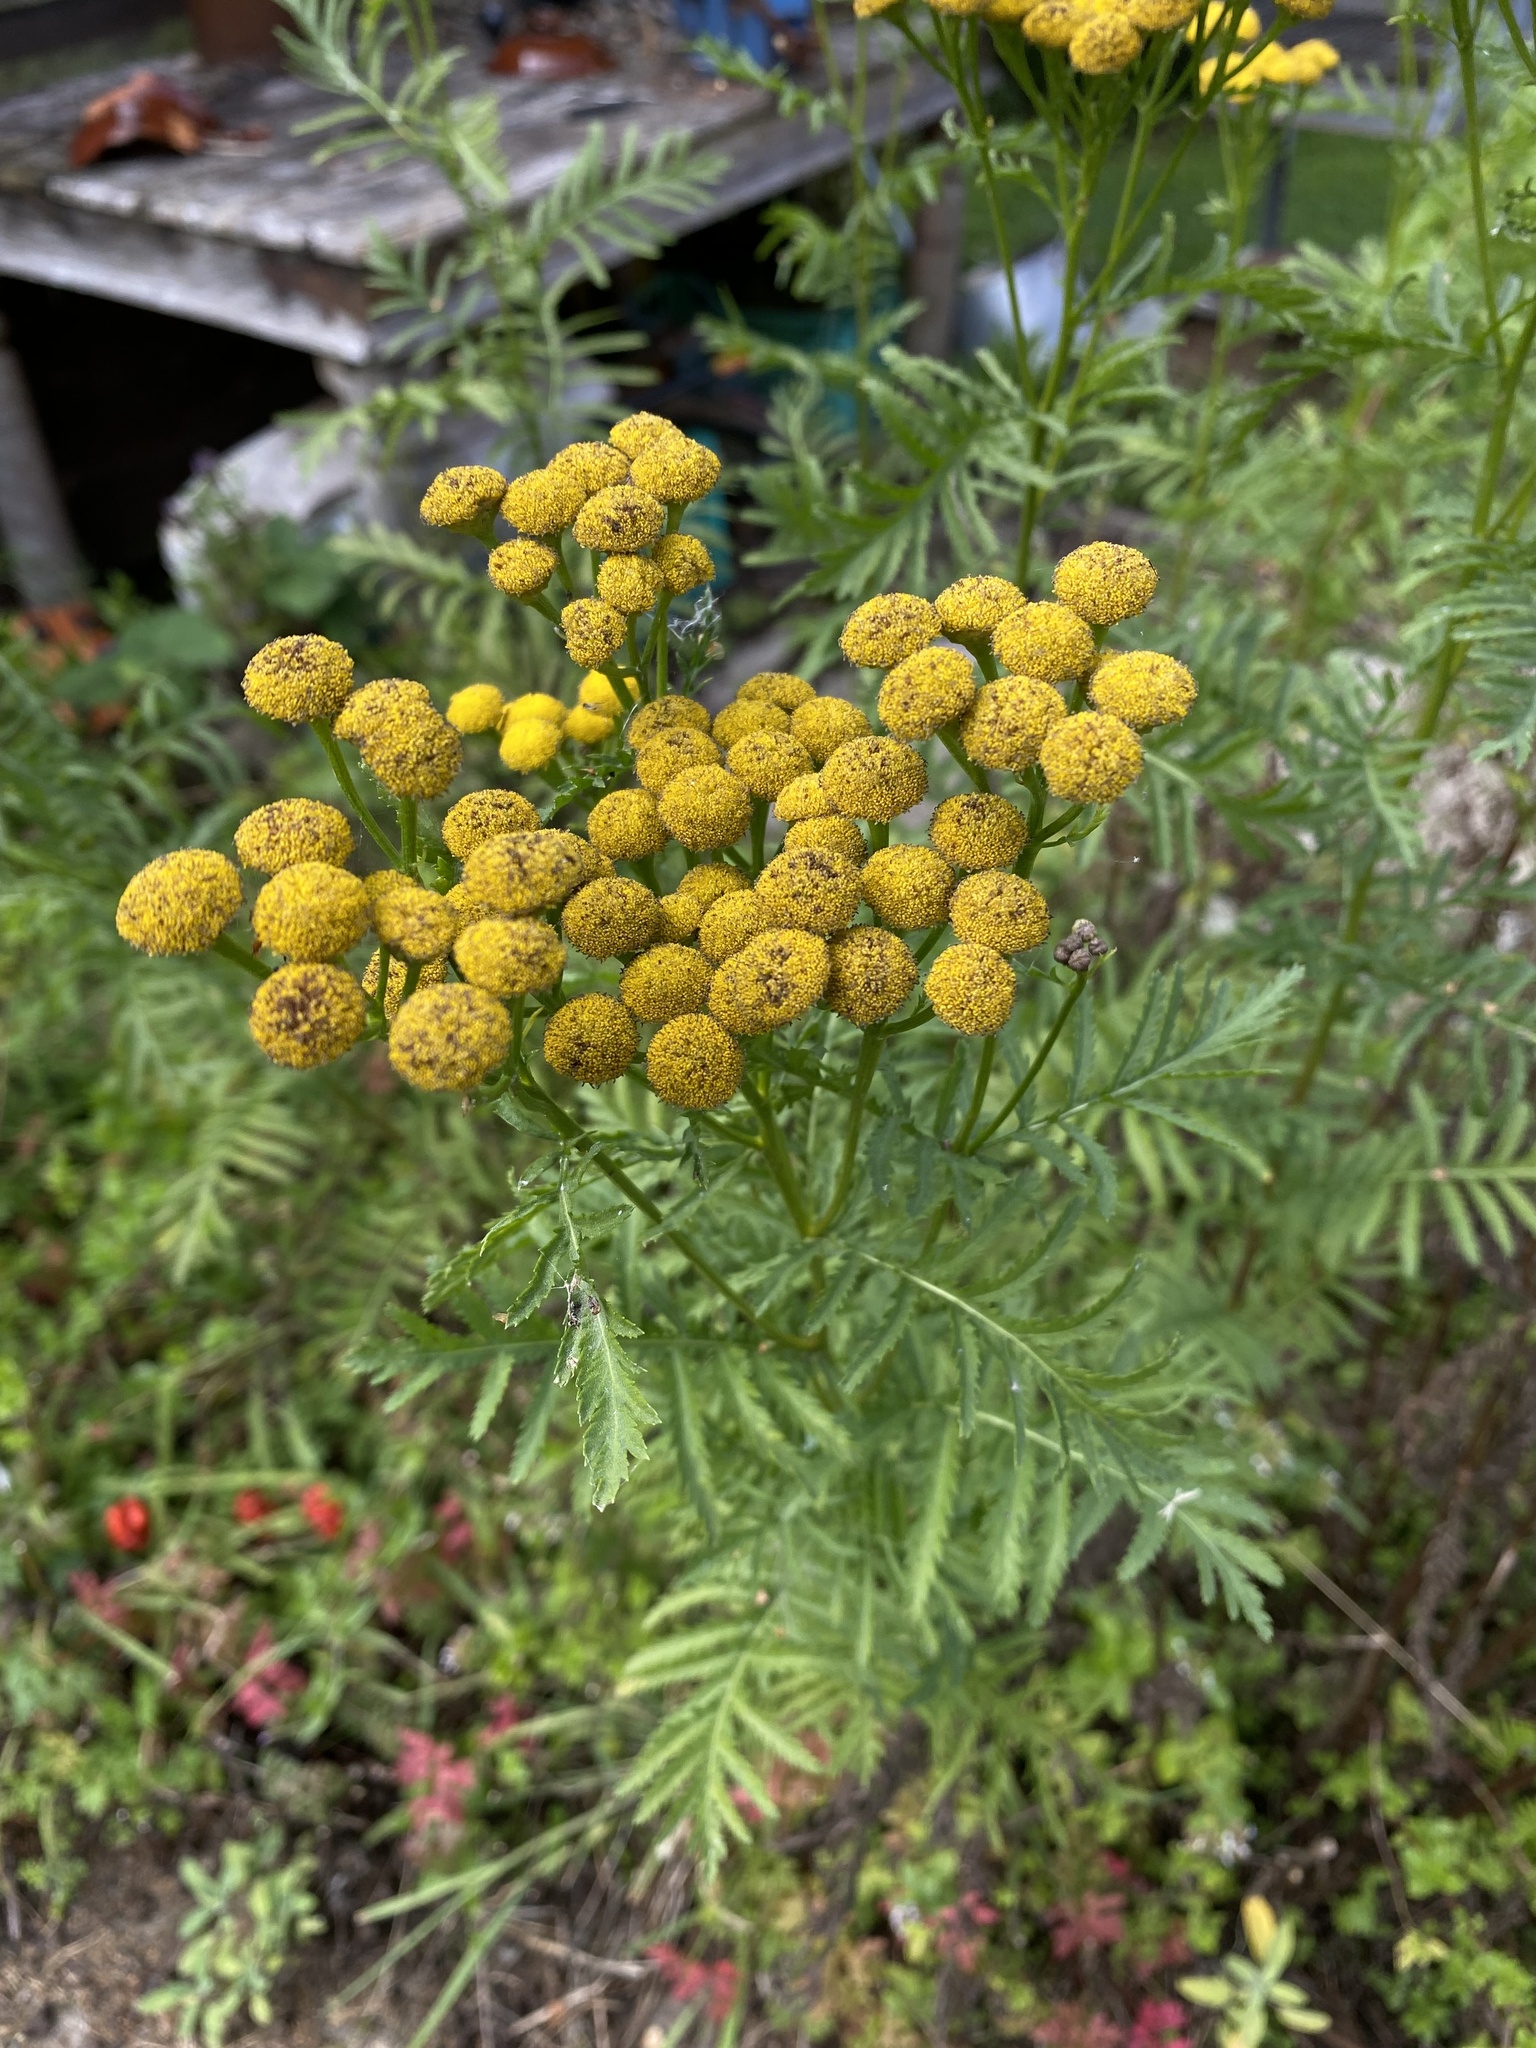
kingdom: Plantae
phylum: Tracheophyta
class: Magnoliopsida
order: Asterales
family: Asteraceae
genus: Tanacetum
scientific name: Tanacetum vulgare
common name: Common tansy
